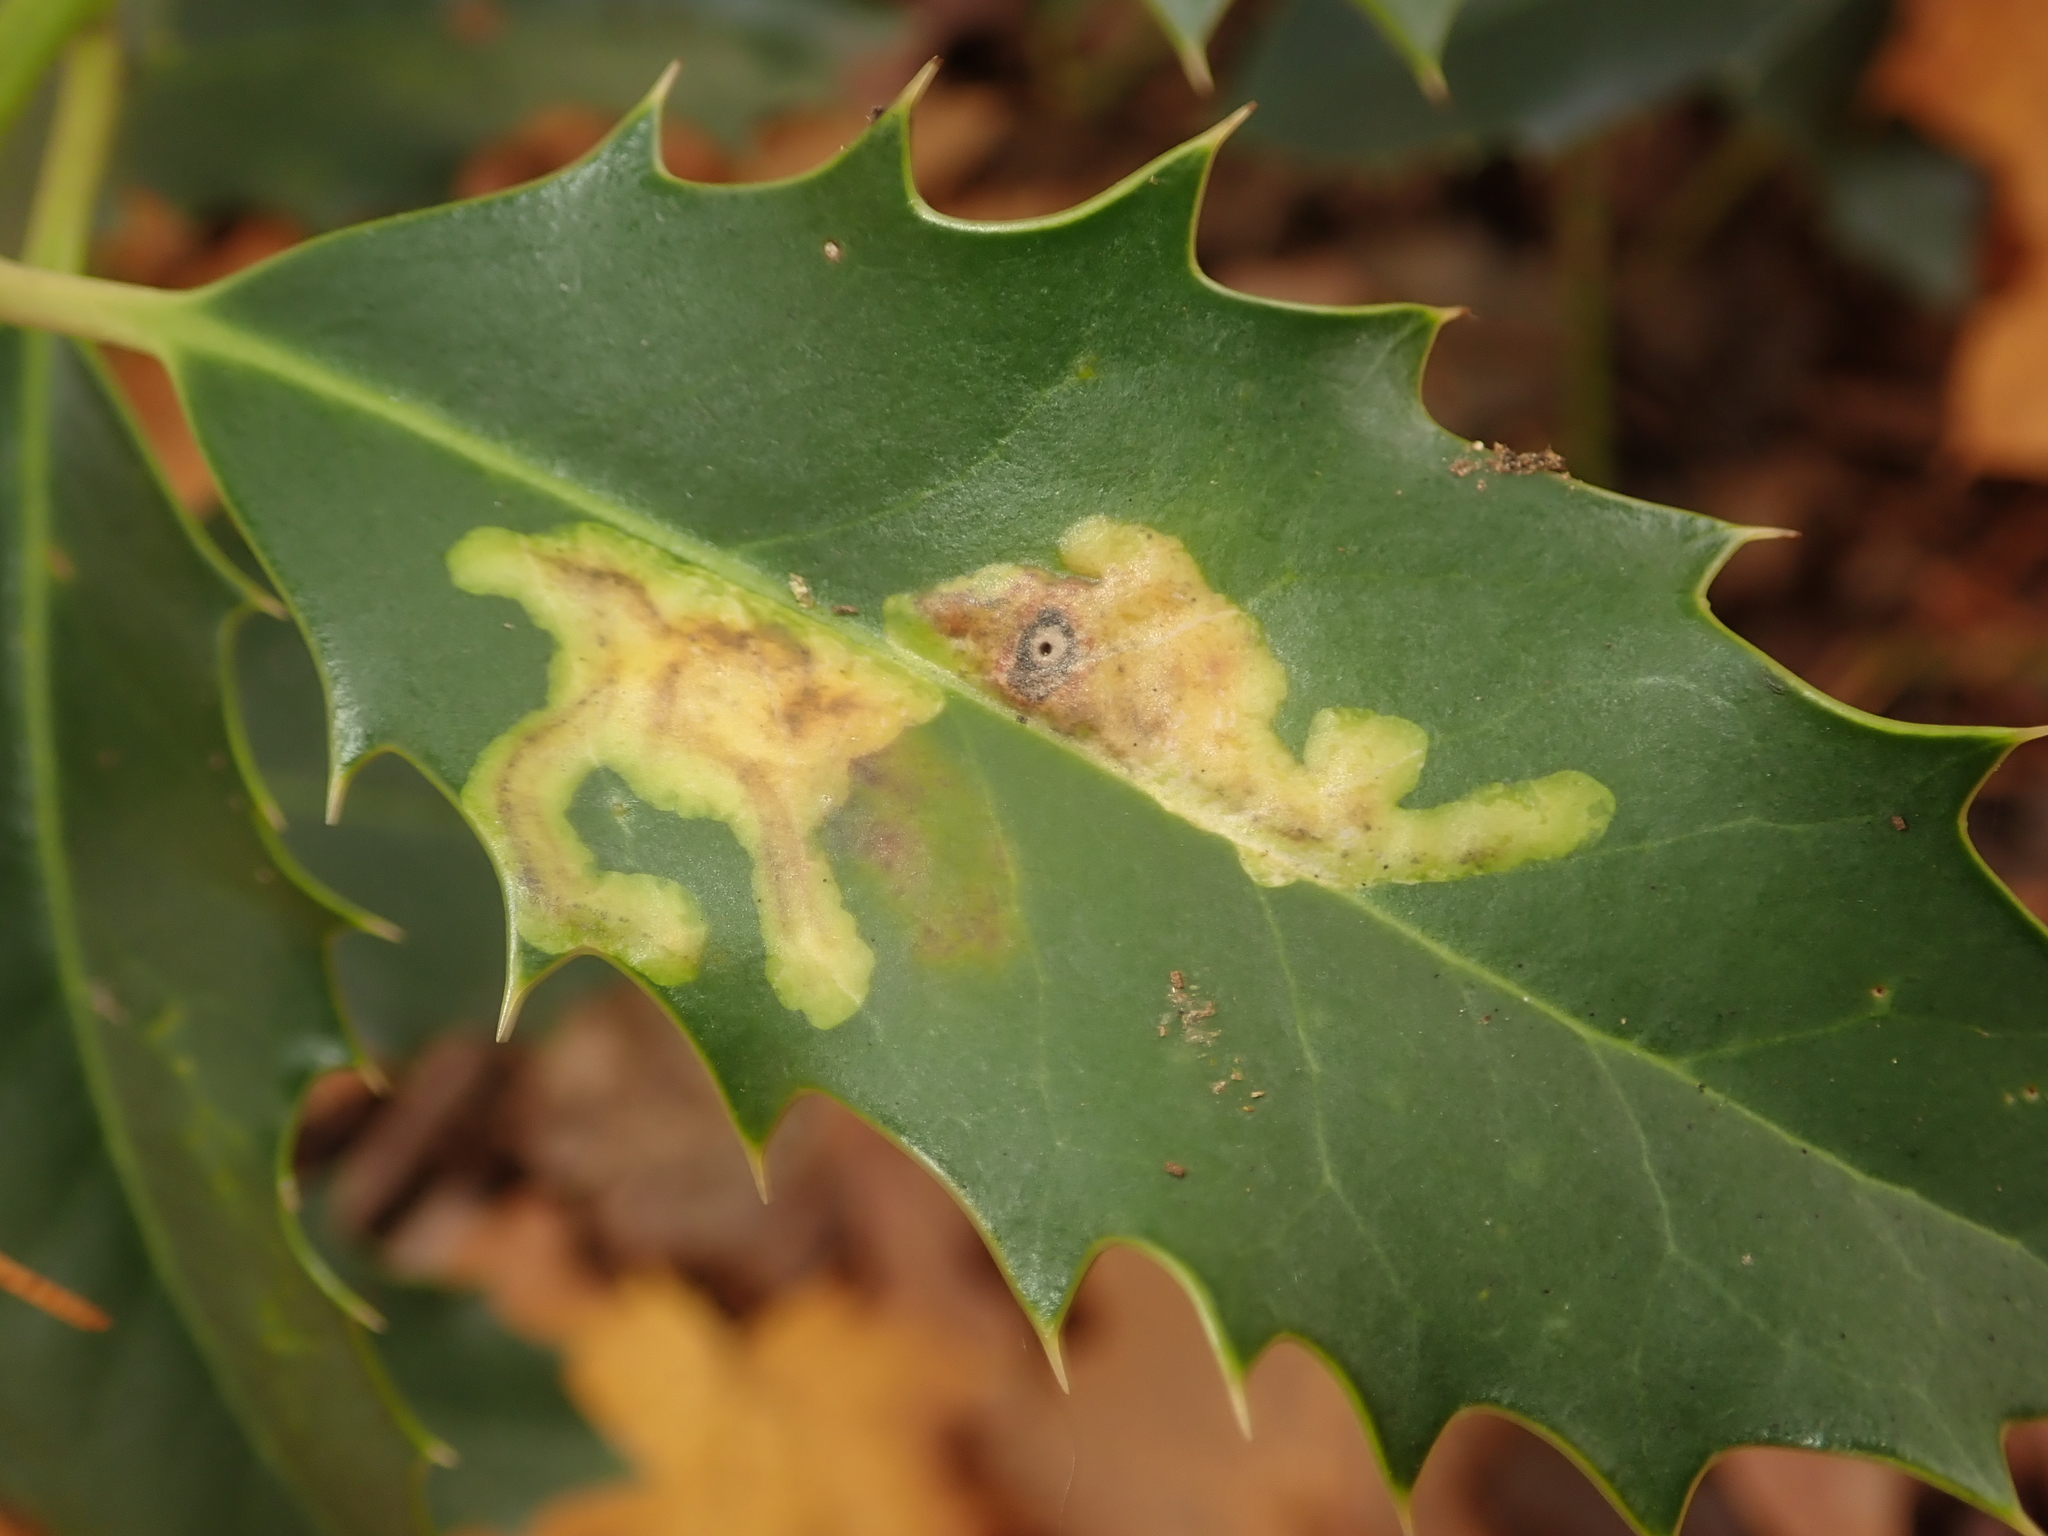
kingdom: Animalia
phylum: Arthropoda
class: Insecta
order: Diptera
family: Agromyzidae
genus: Phytomyza
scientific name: Phytomyza ilicis
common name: Holly leafminer
